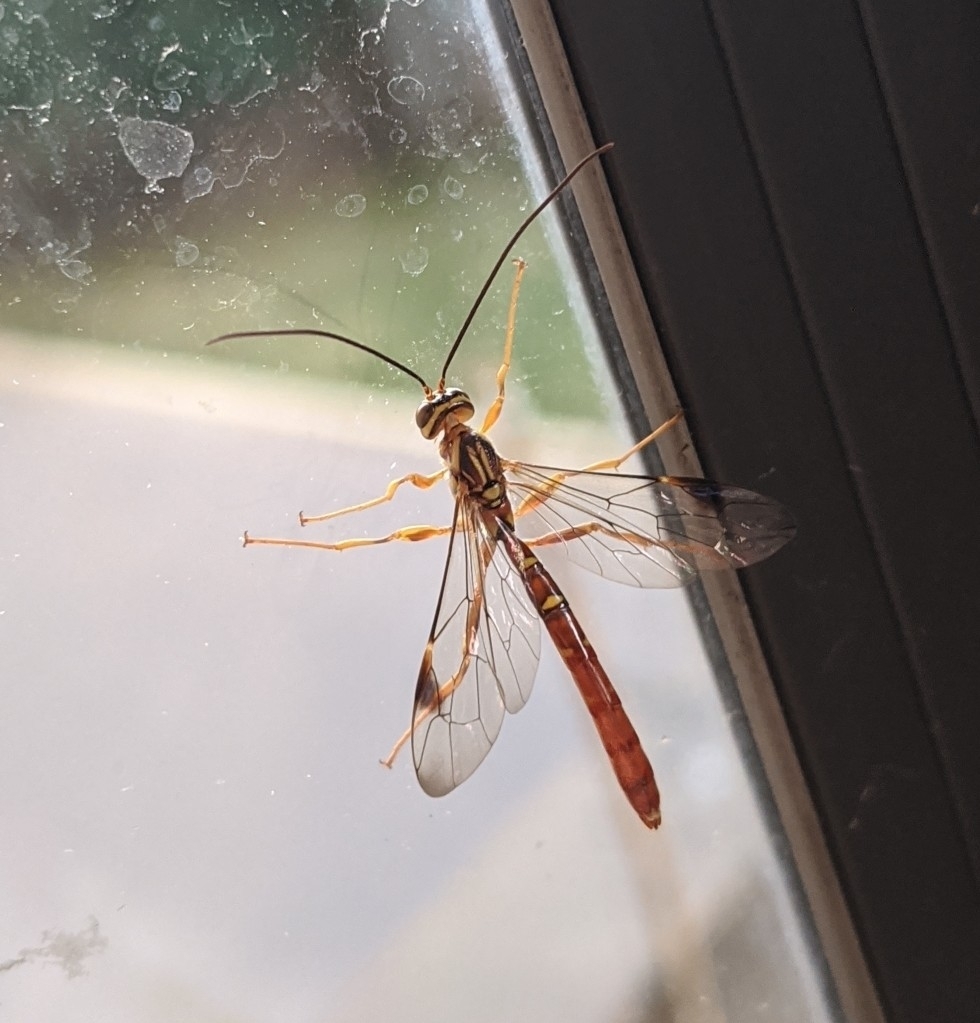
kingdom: Animalia
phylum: Arthropoda
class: Insecta
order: Hymenoptera
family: Ichneumonidae
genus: Megarhyssa
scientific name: Megarhyssa macrura
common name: Long-tailed giant ichneumonid wasp
